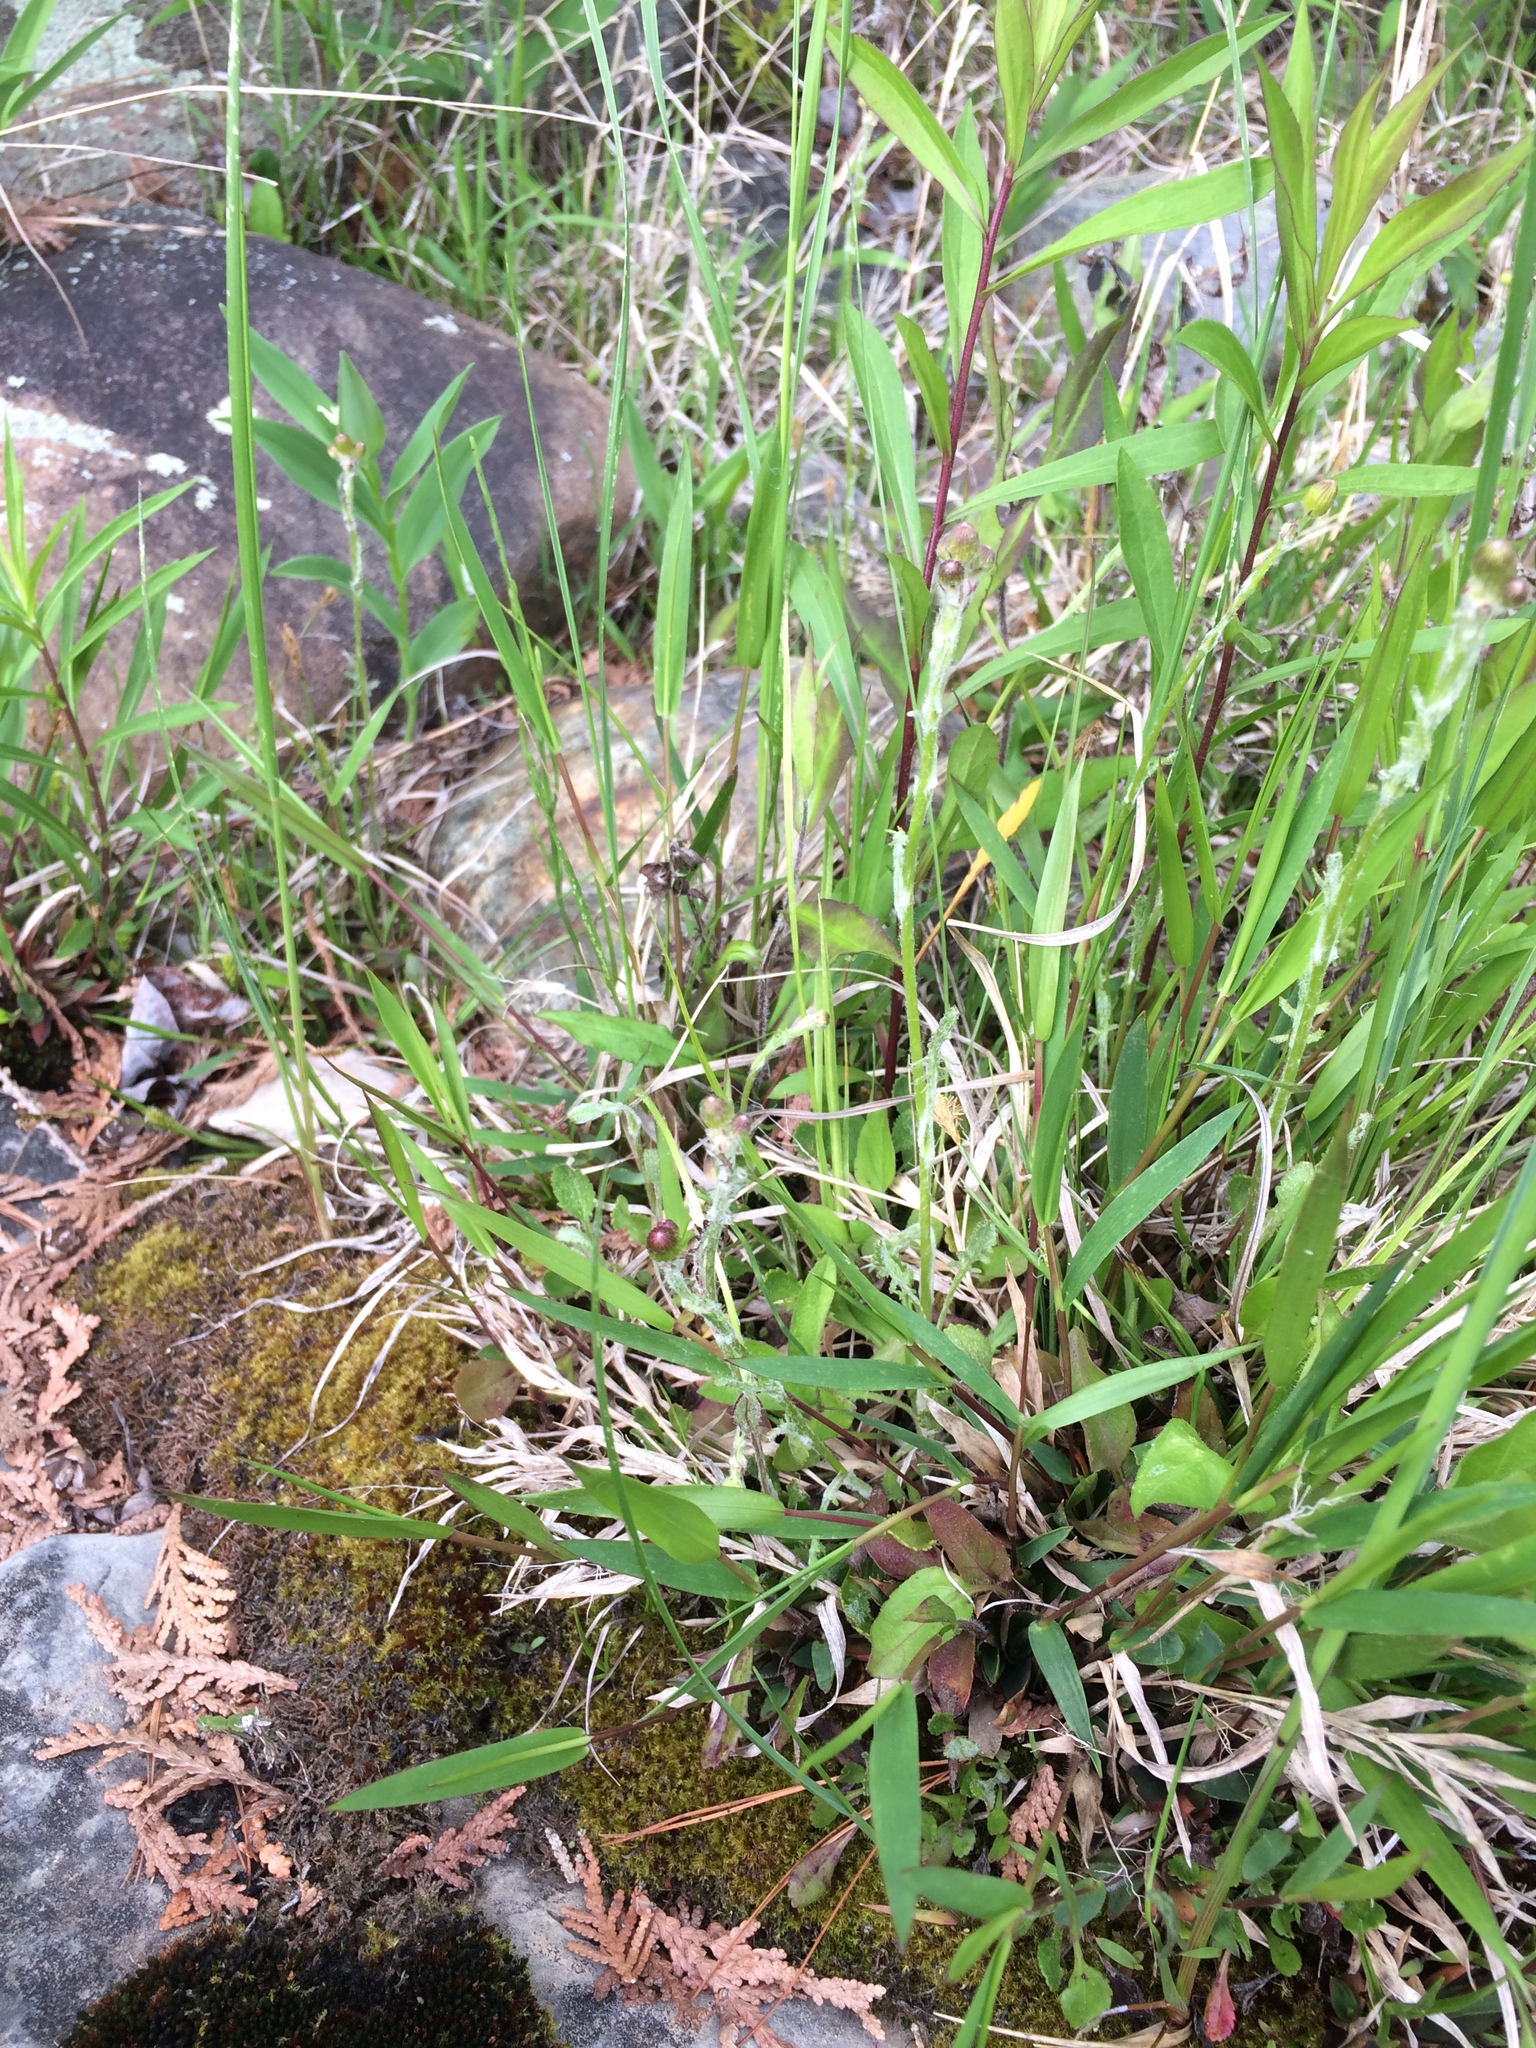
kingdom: Plantae
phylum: Tracheophyta
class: Magnoliopsida
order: Asterales
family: Asteraceae
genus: Packera
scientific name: Packera paupercula
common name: Balsam groundsel
